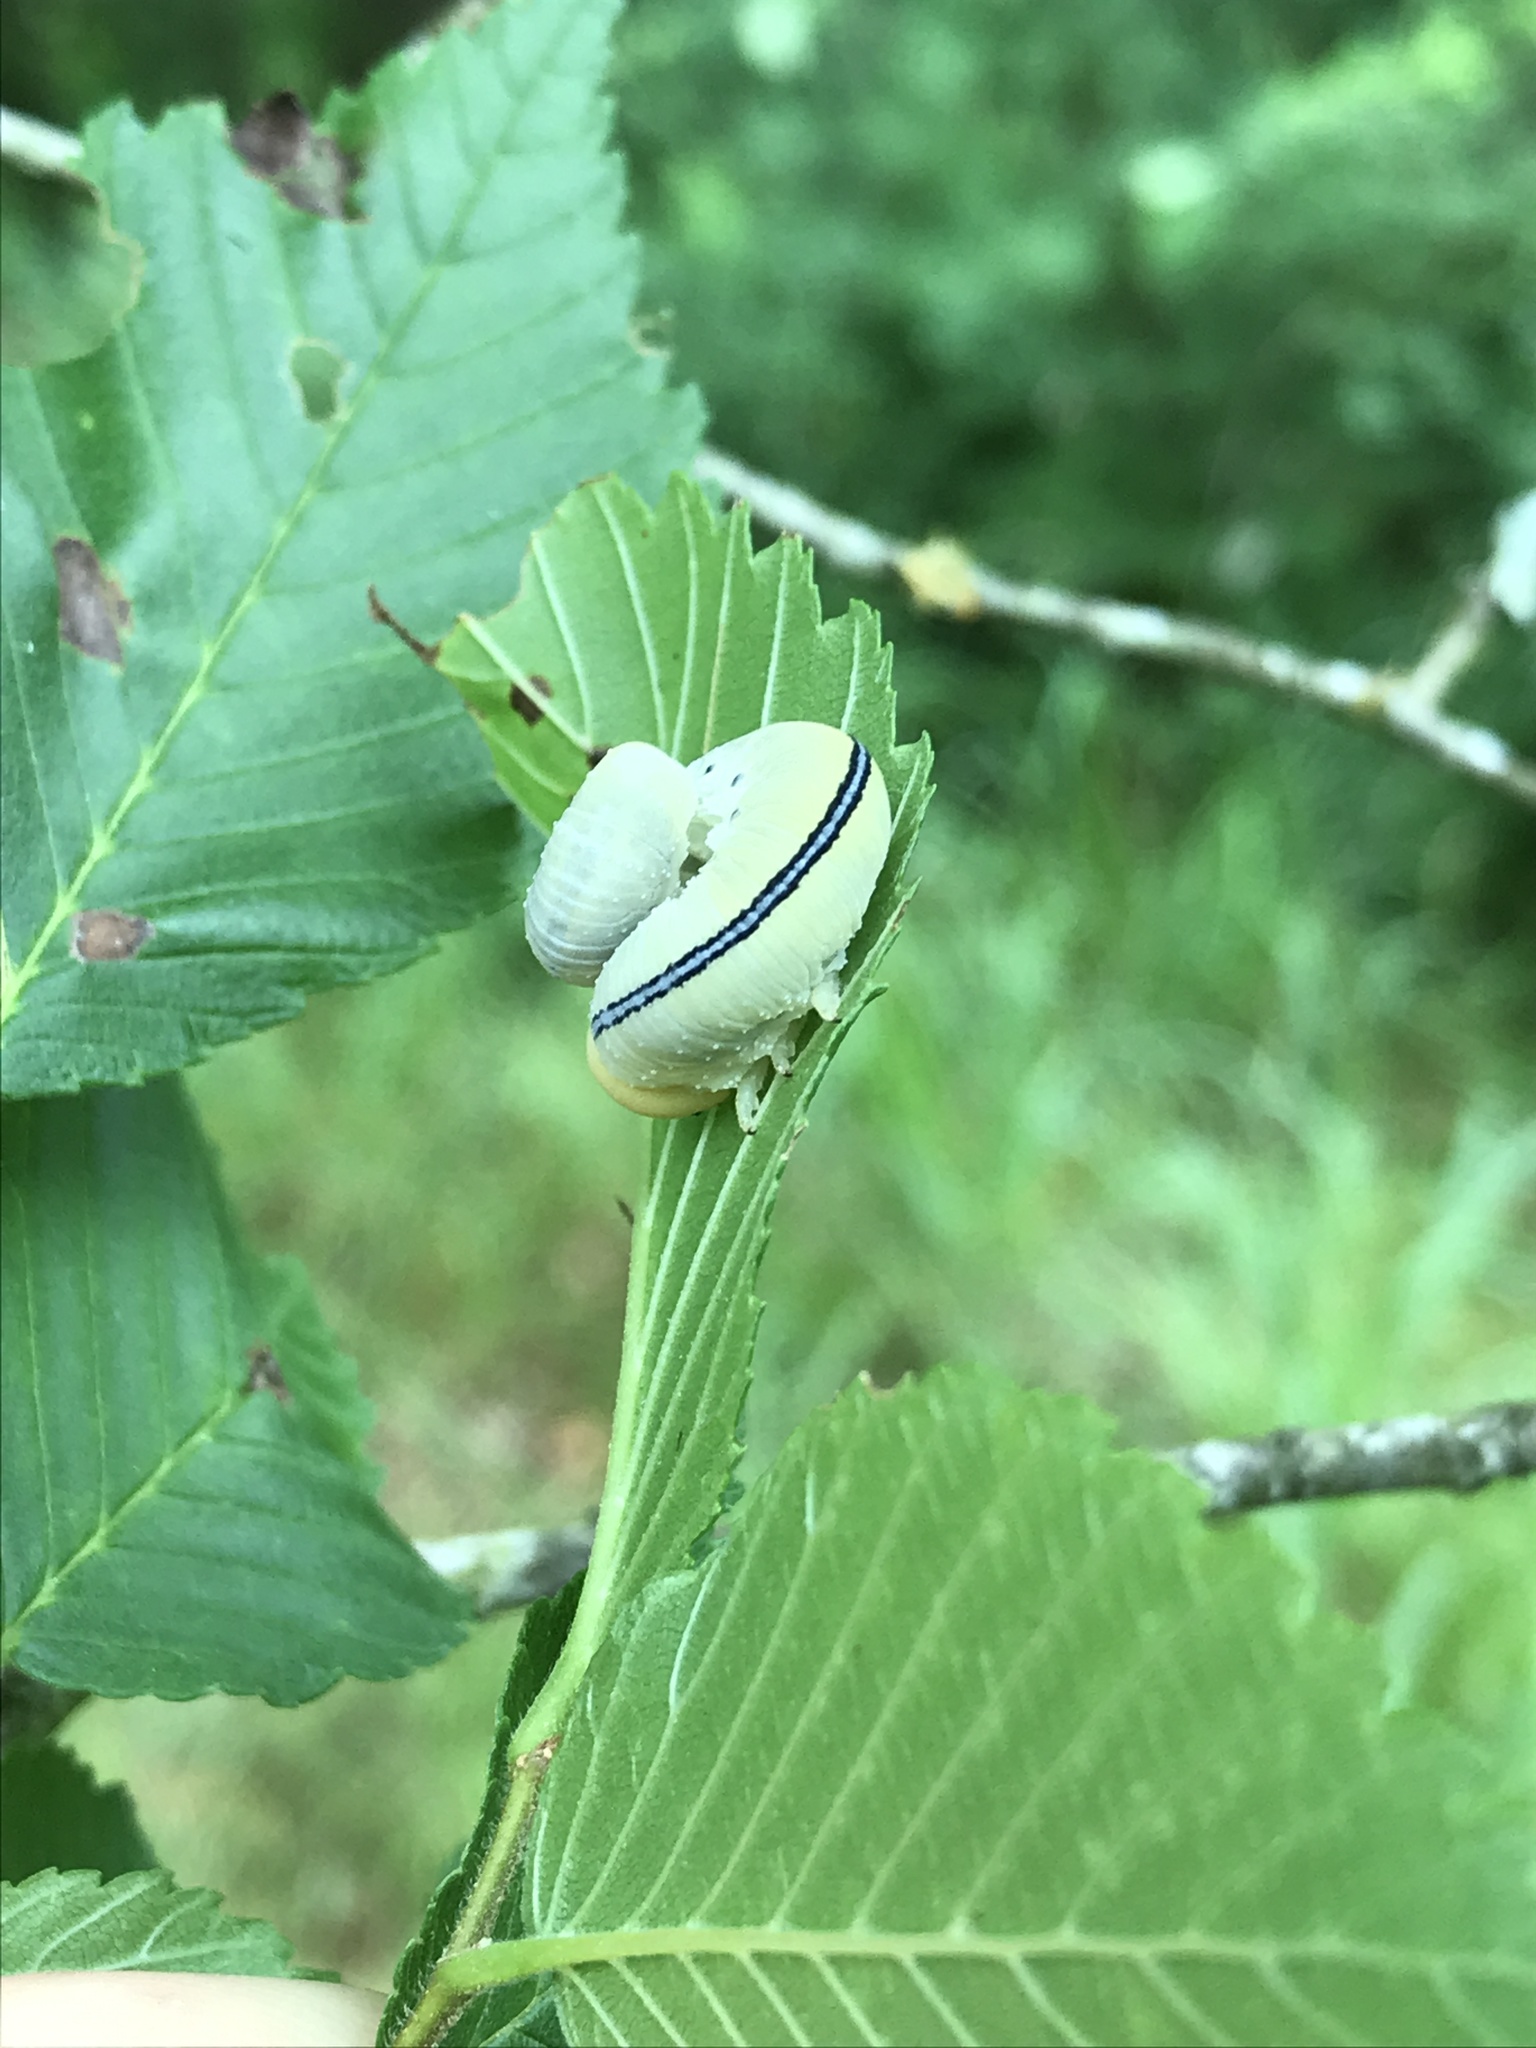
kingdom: Animalia
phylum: Arthropoda
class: Insecta
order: Hymenoptera
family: Cimbicidae
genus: Cimbex
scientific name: Cimbex americana
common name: Elm sawfly
